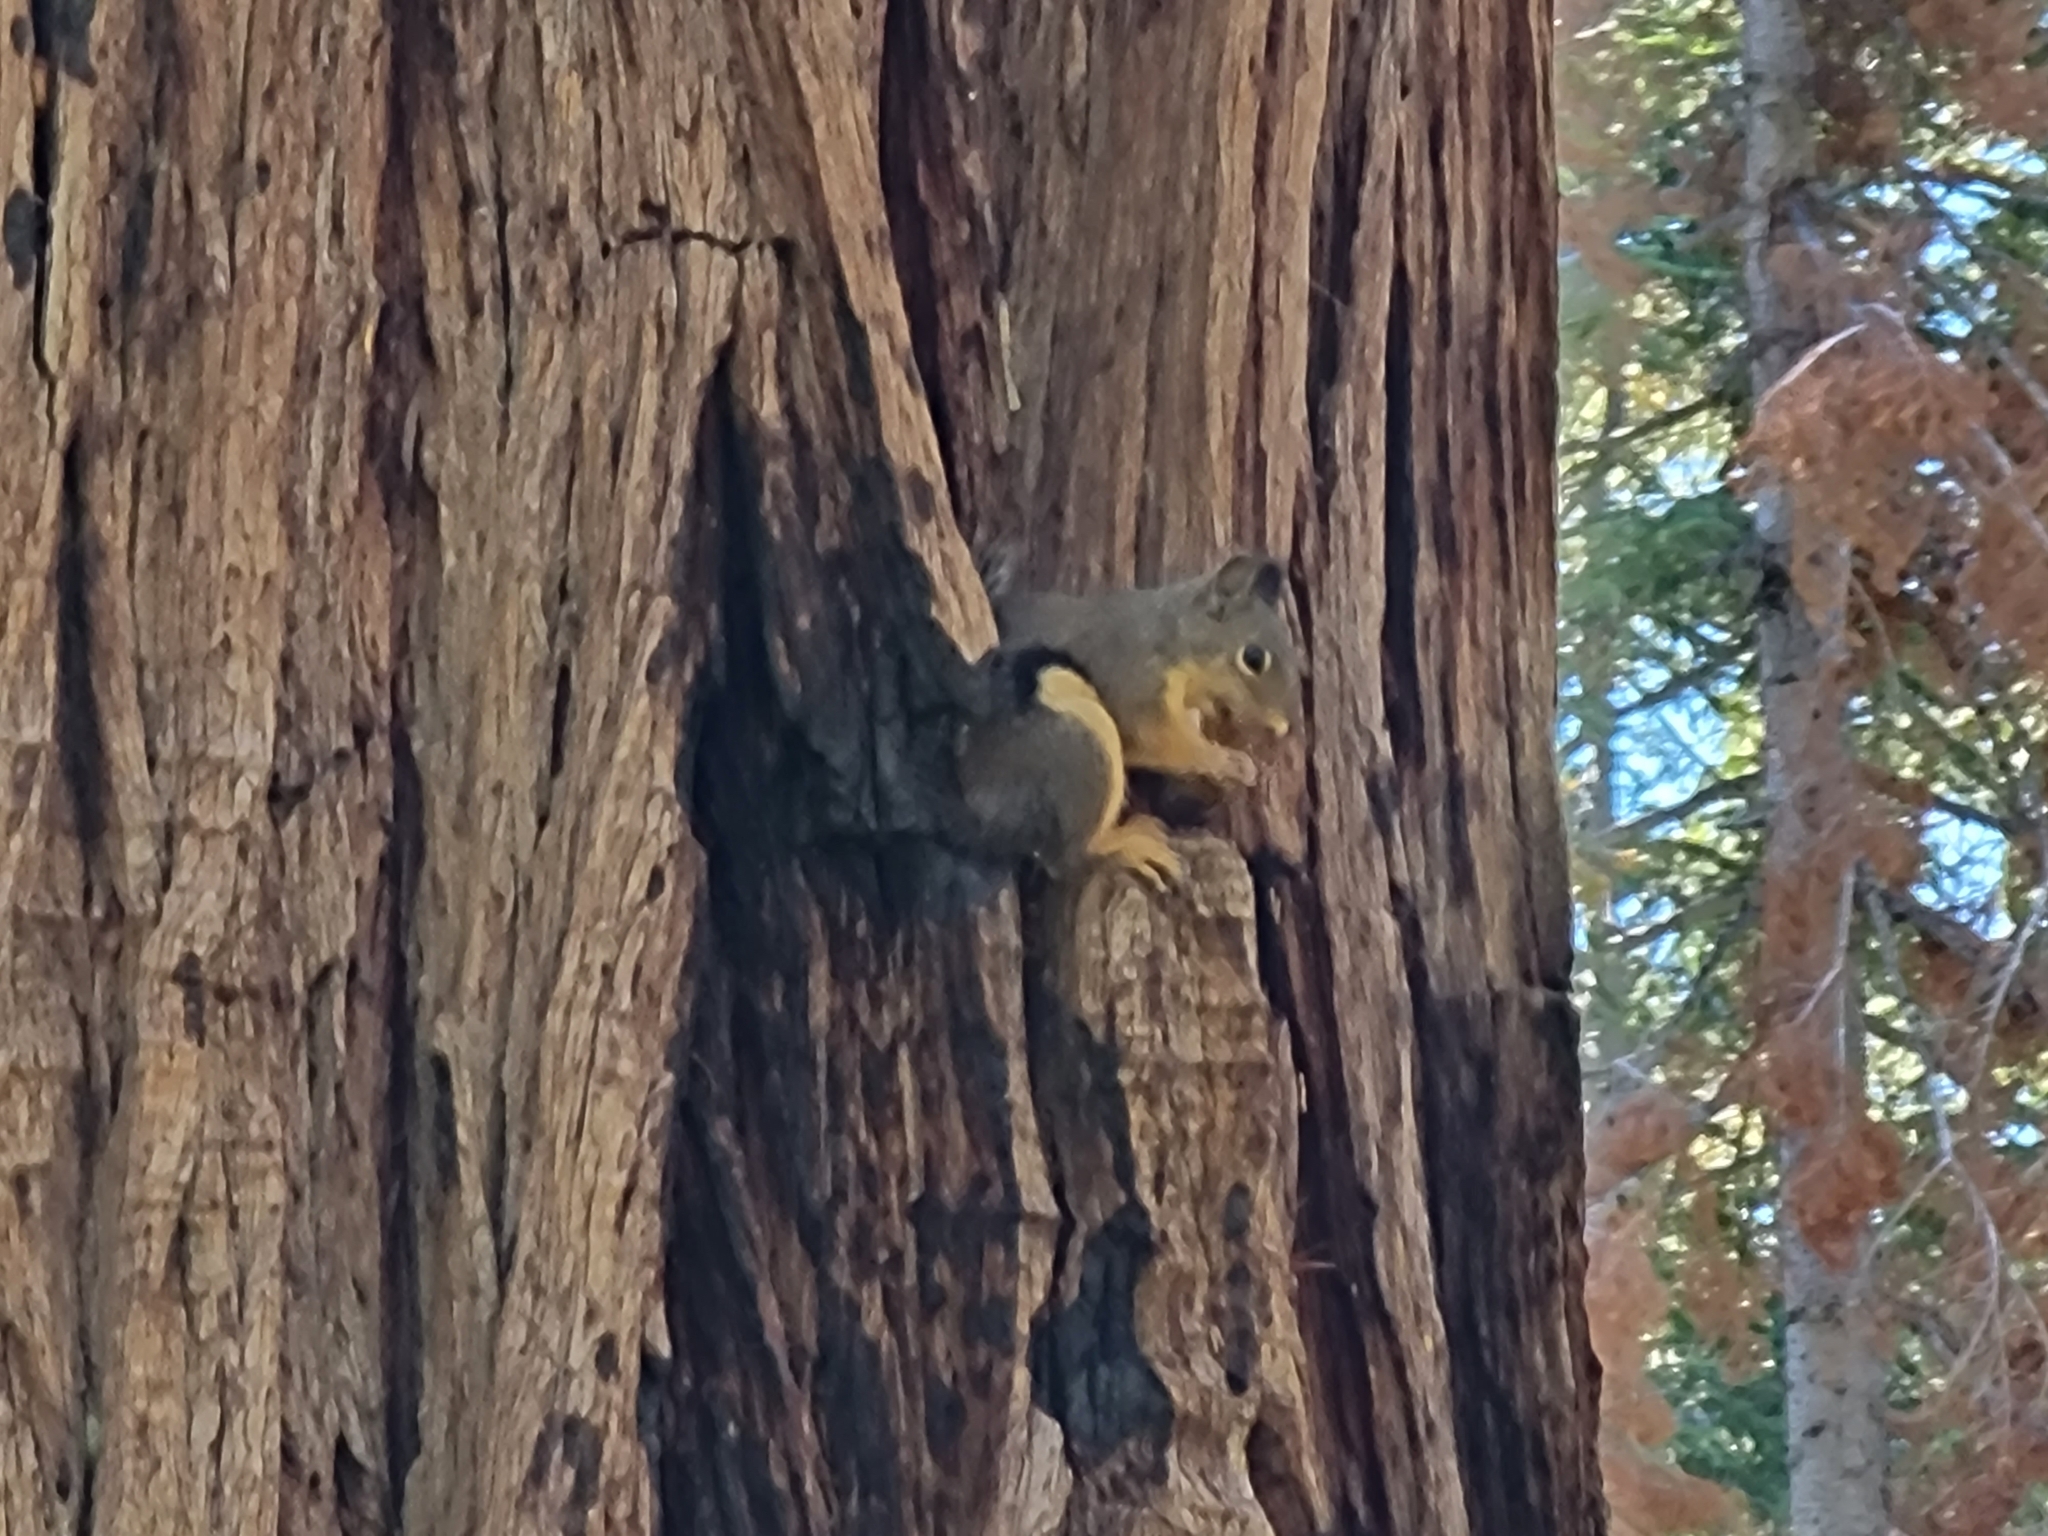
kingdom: Animalia
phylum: Chordata
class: Mammalia
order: Rodentia
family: Sciuridae
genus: Tamiasciurus
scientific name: Tamiasciurus douglasii
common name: Douglas's squirrel
